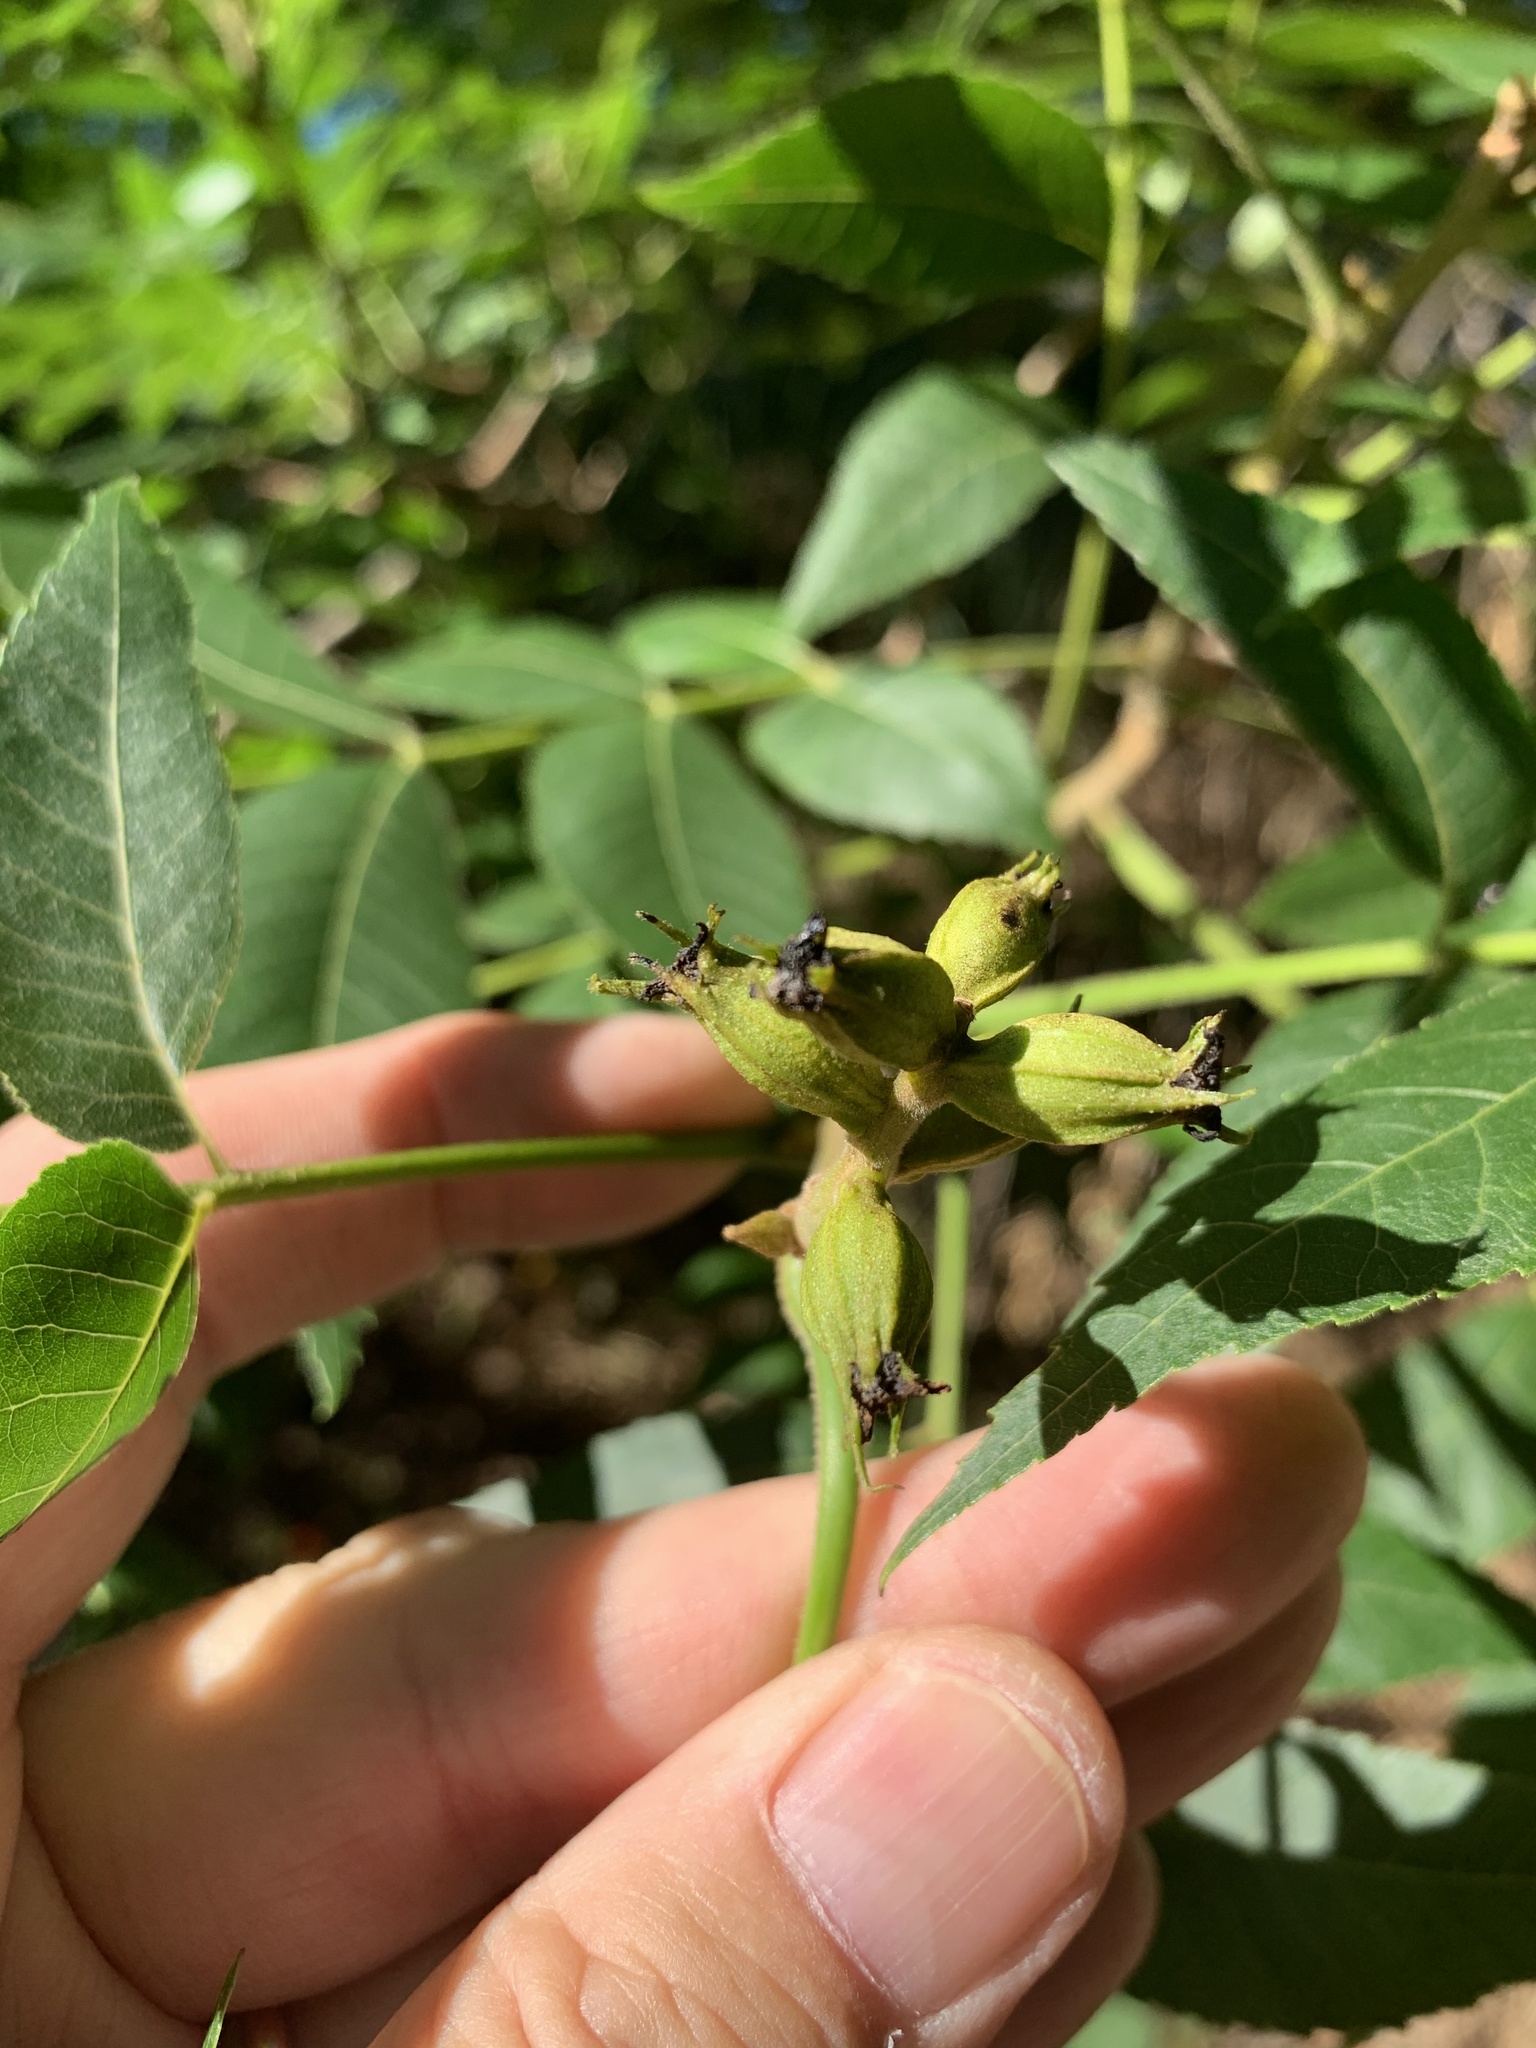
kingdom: Plantae
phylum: Tracheophyta
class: Magnoliopsida
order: Fagales
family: Juglandaceae
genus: Carya
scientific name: Carya illinoinensis
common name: Pecan
